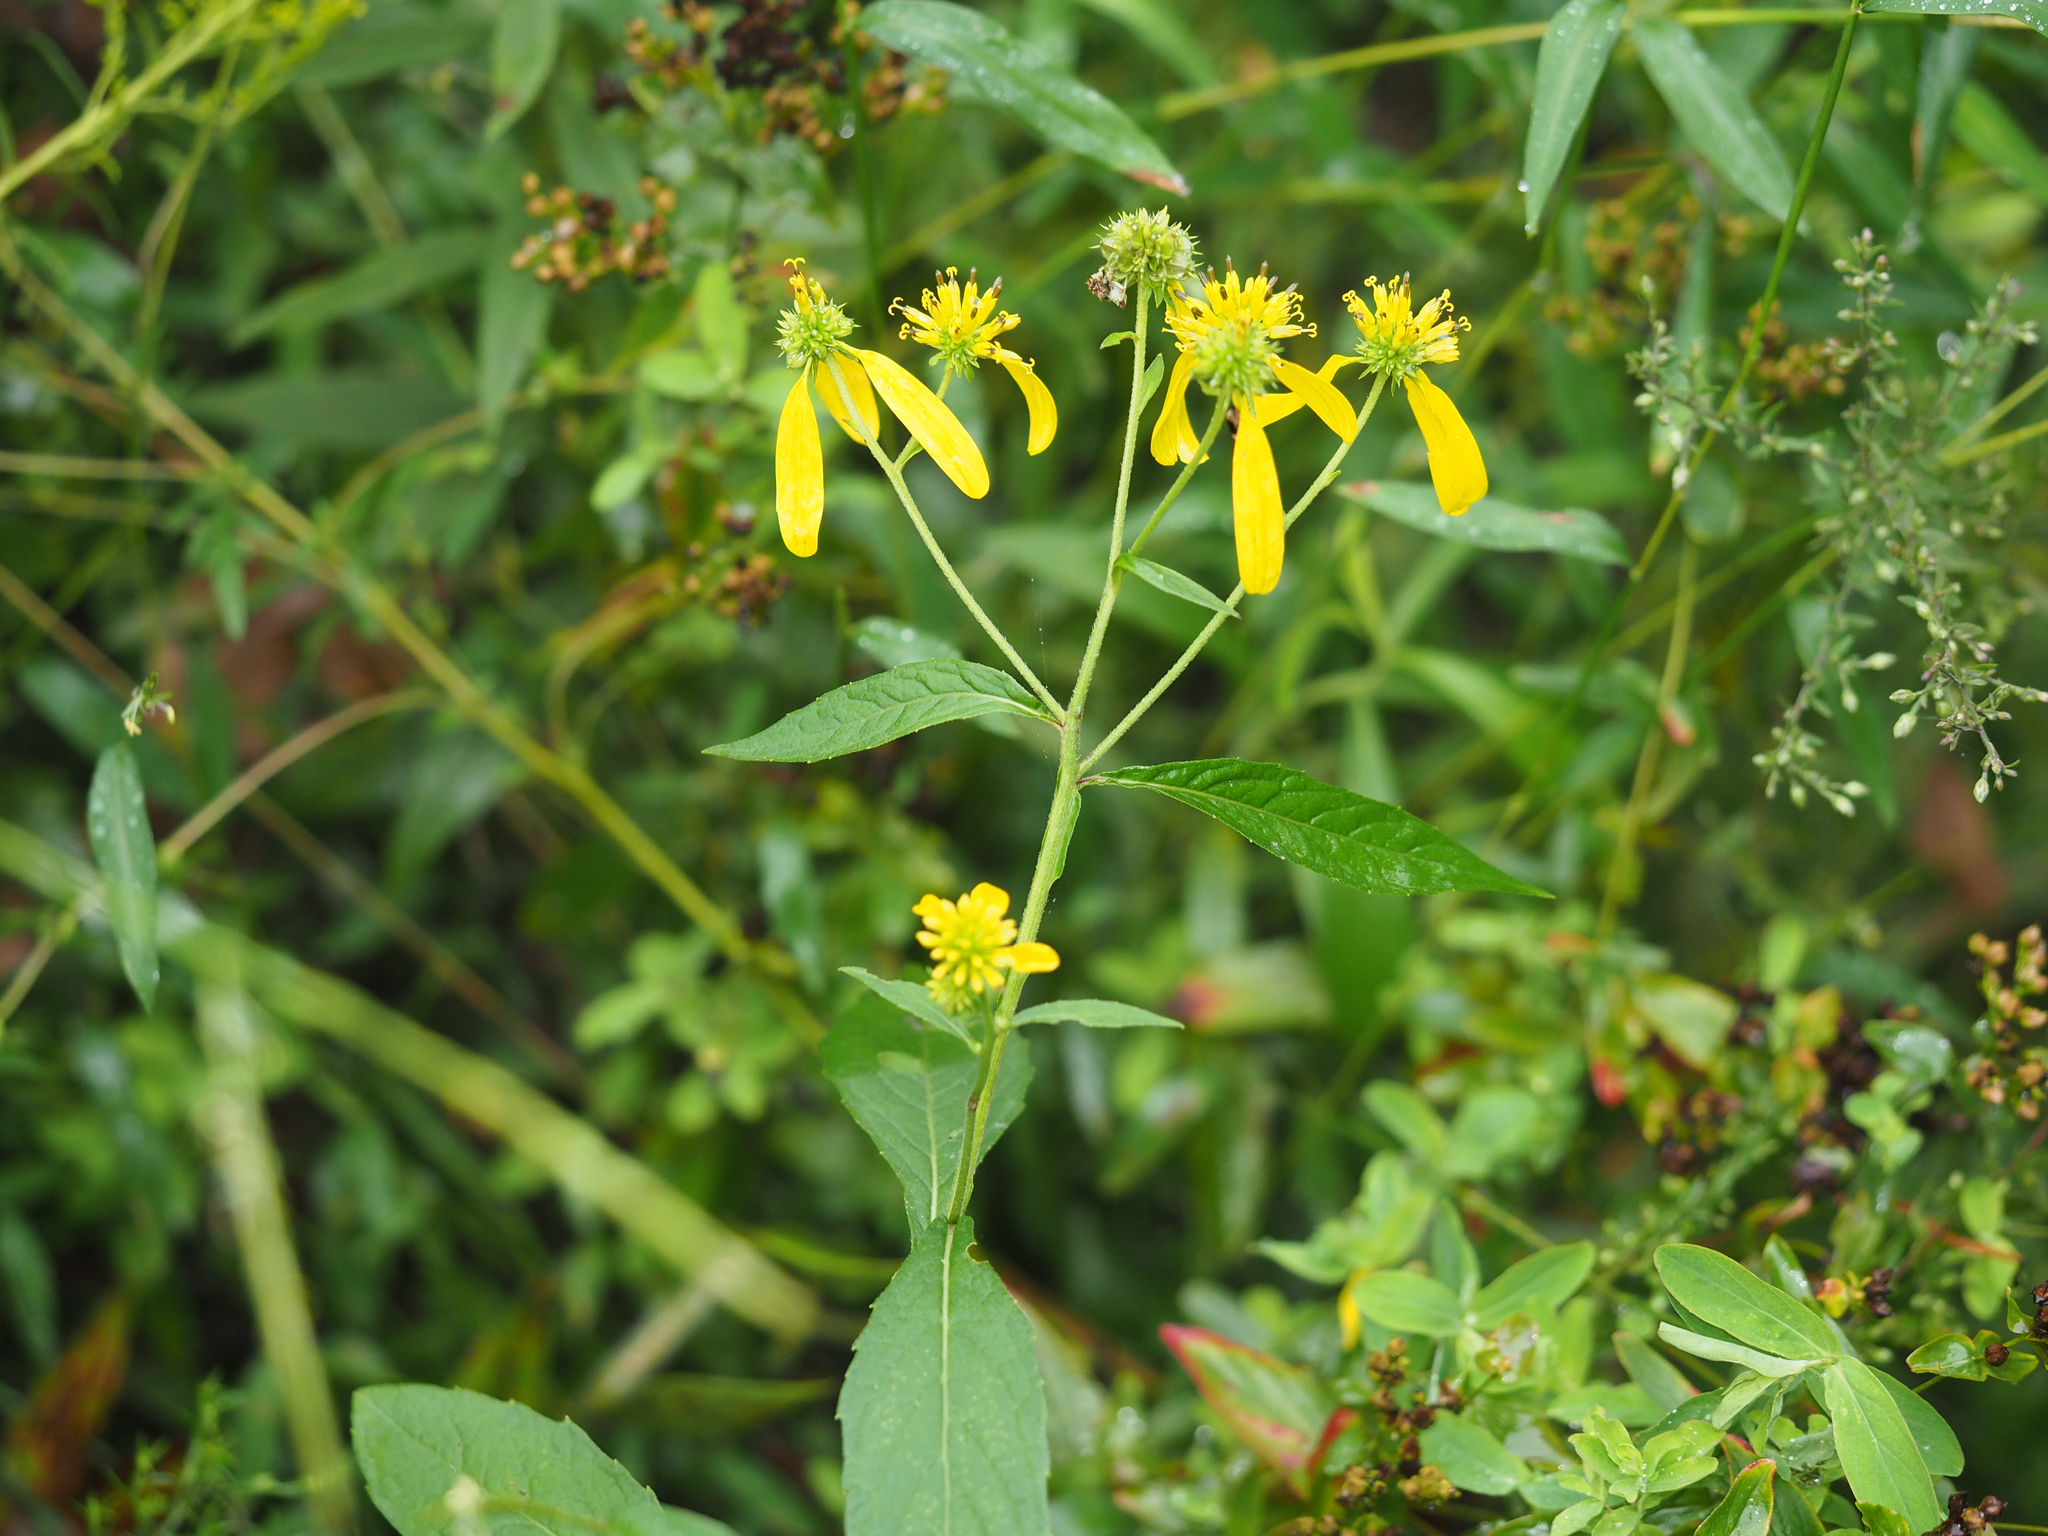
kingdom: Plantae
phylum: Tracheophyta
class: Magnoliopsida
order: Asterales
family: Asteraceae
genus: Verbesina
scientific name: Verbesina alternifolia
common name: Wingstem
